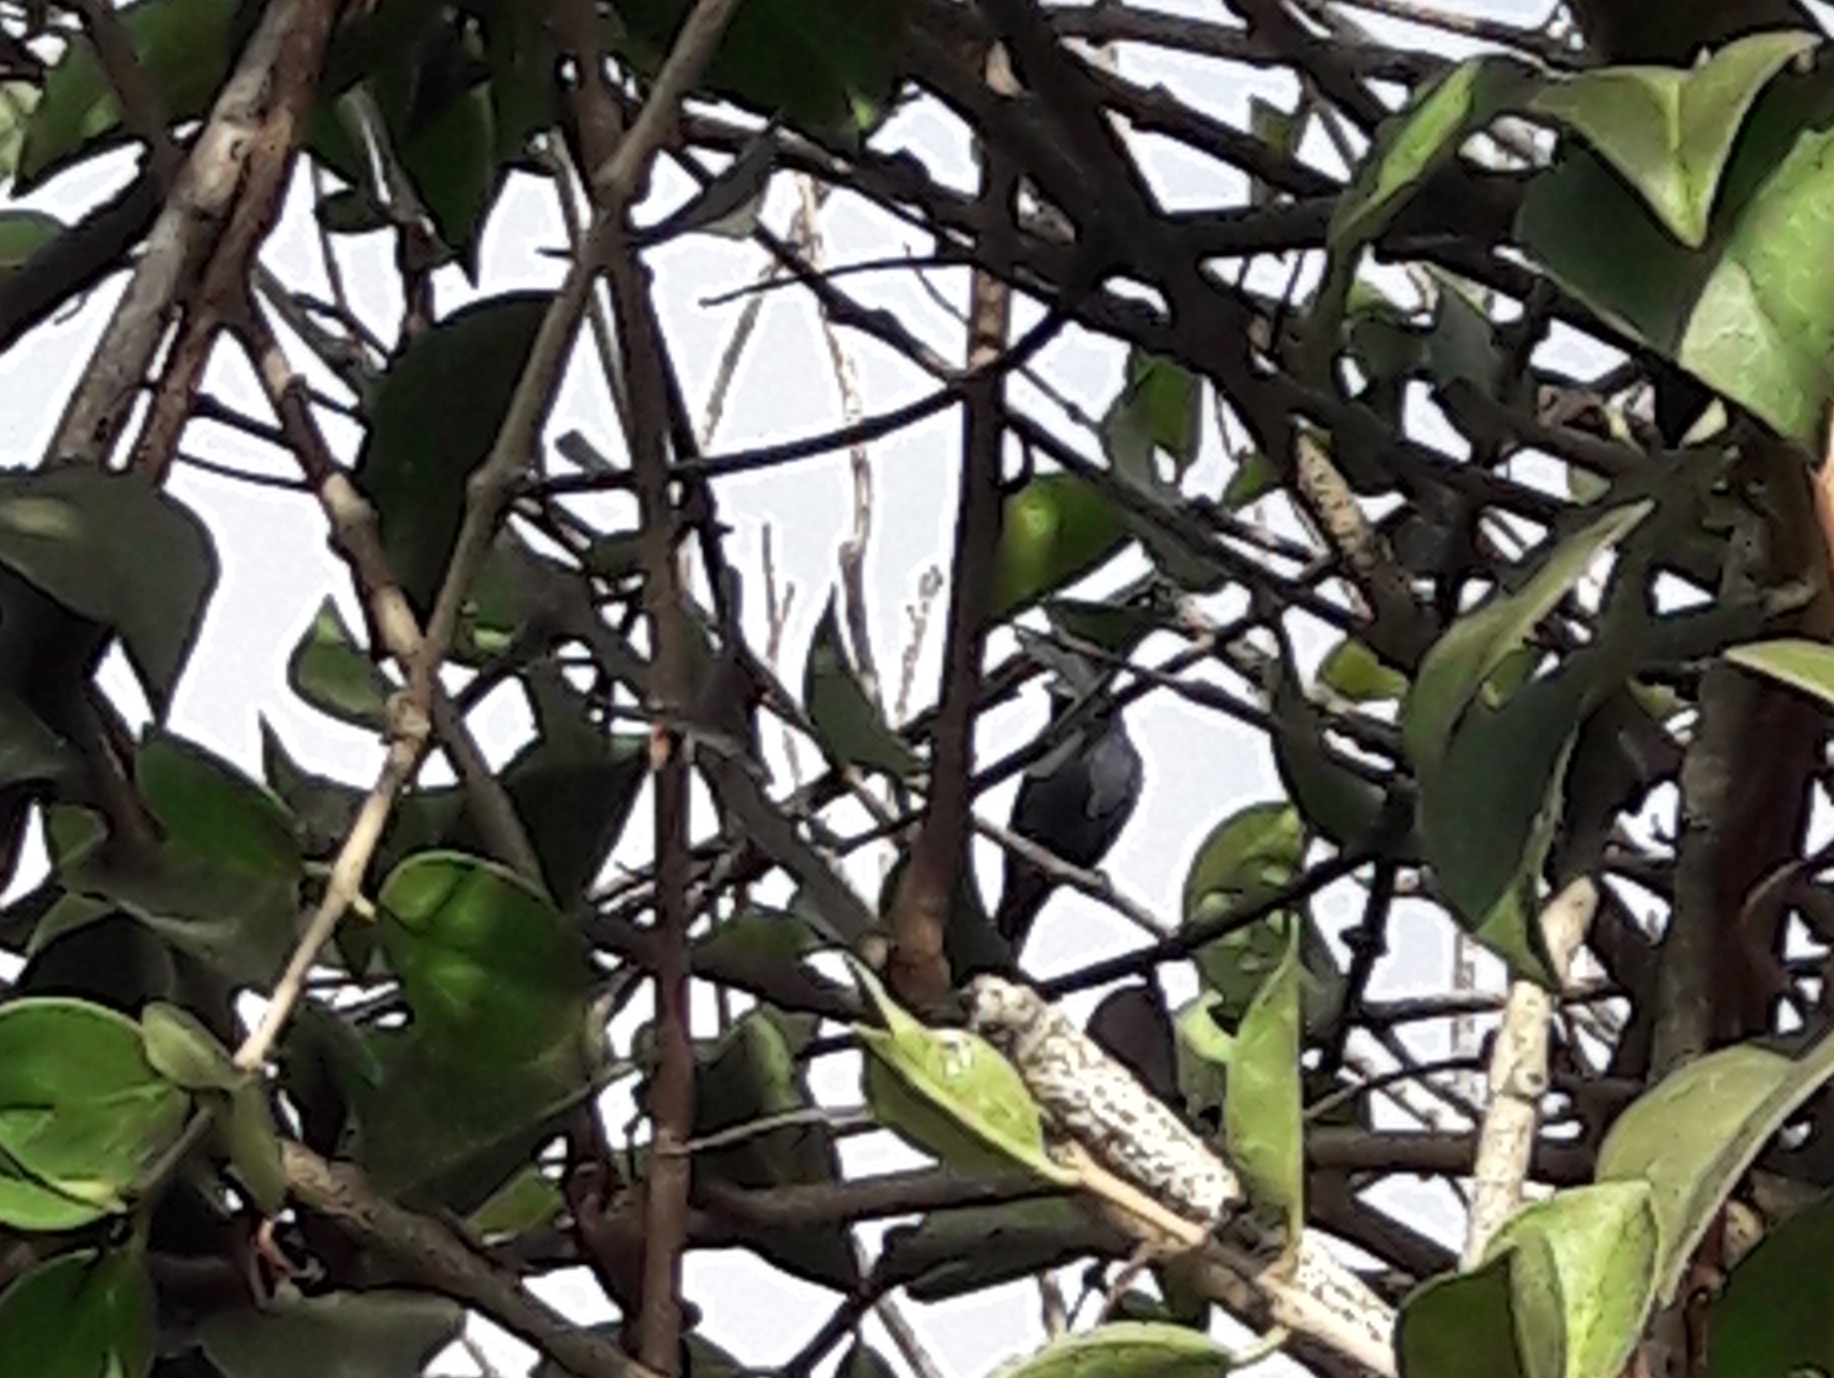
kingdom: Animalia
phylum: Chordata
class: Aves
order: Passeriformes
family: Thraupidae
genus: Volatinia
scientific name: Volatinia jacarina
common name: Blue-black grassquit
